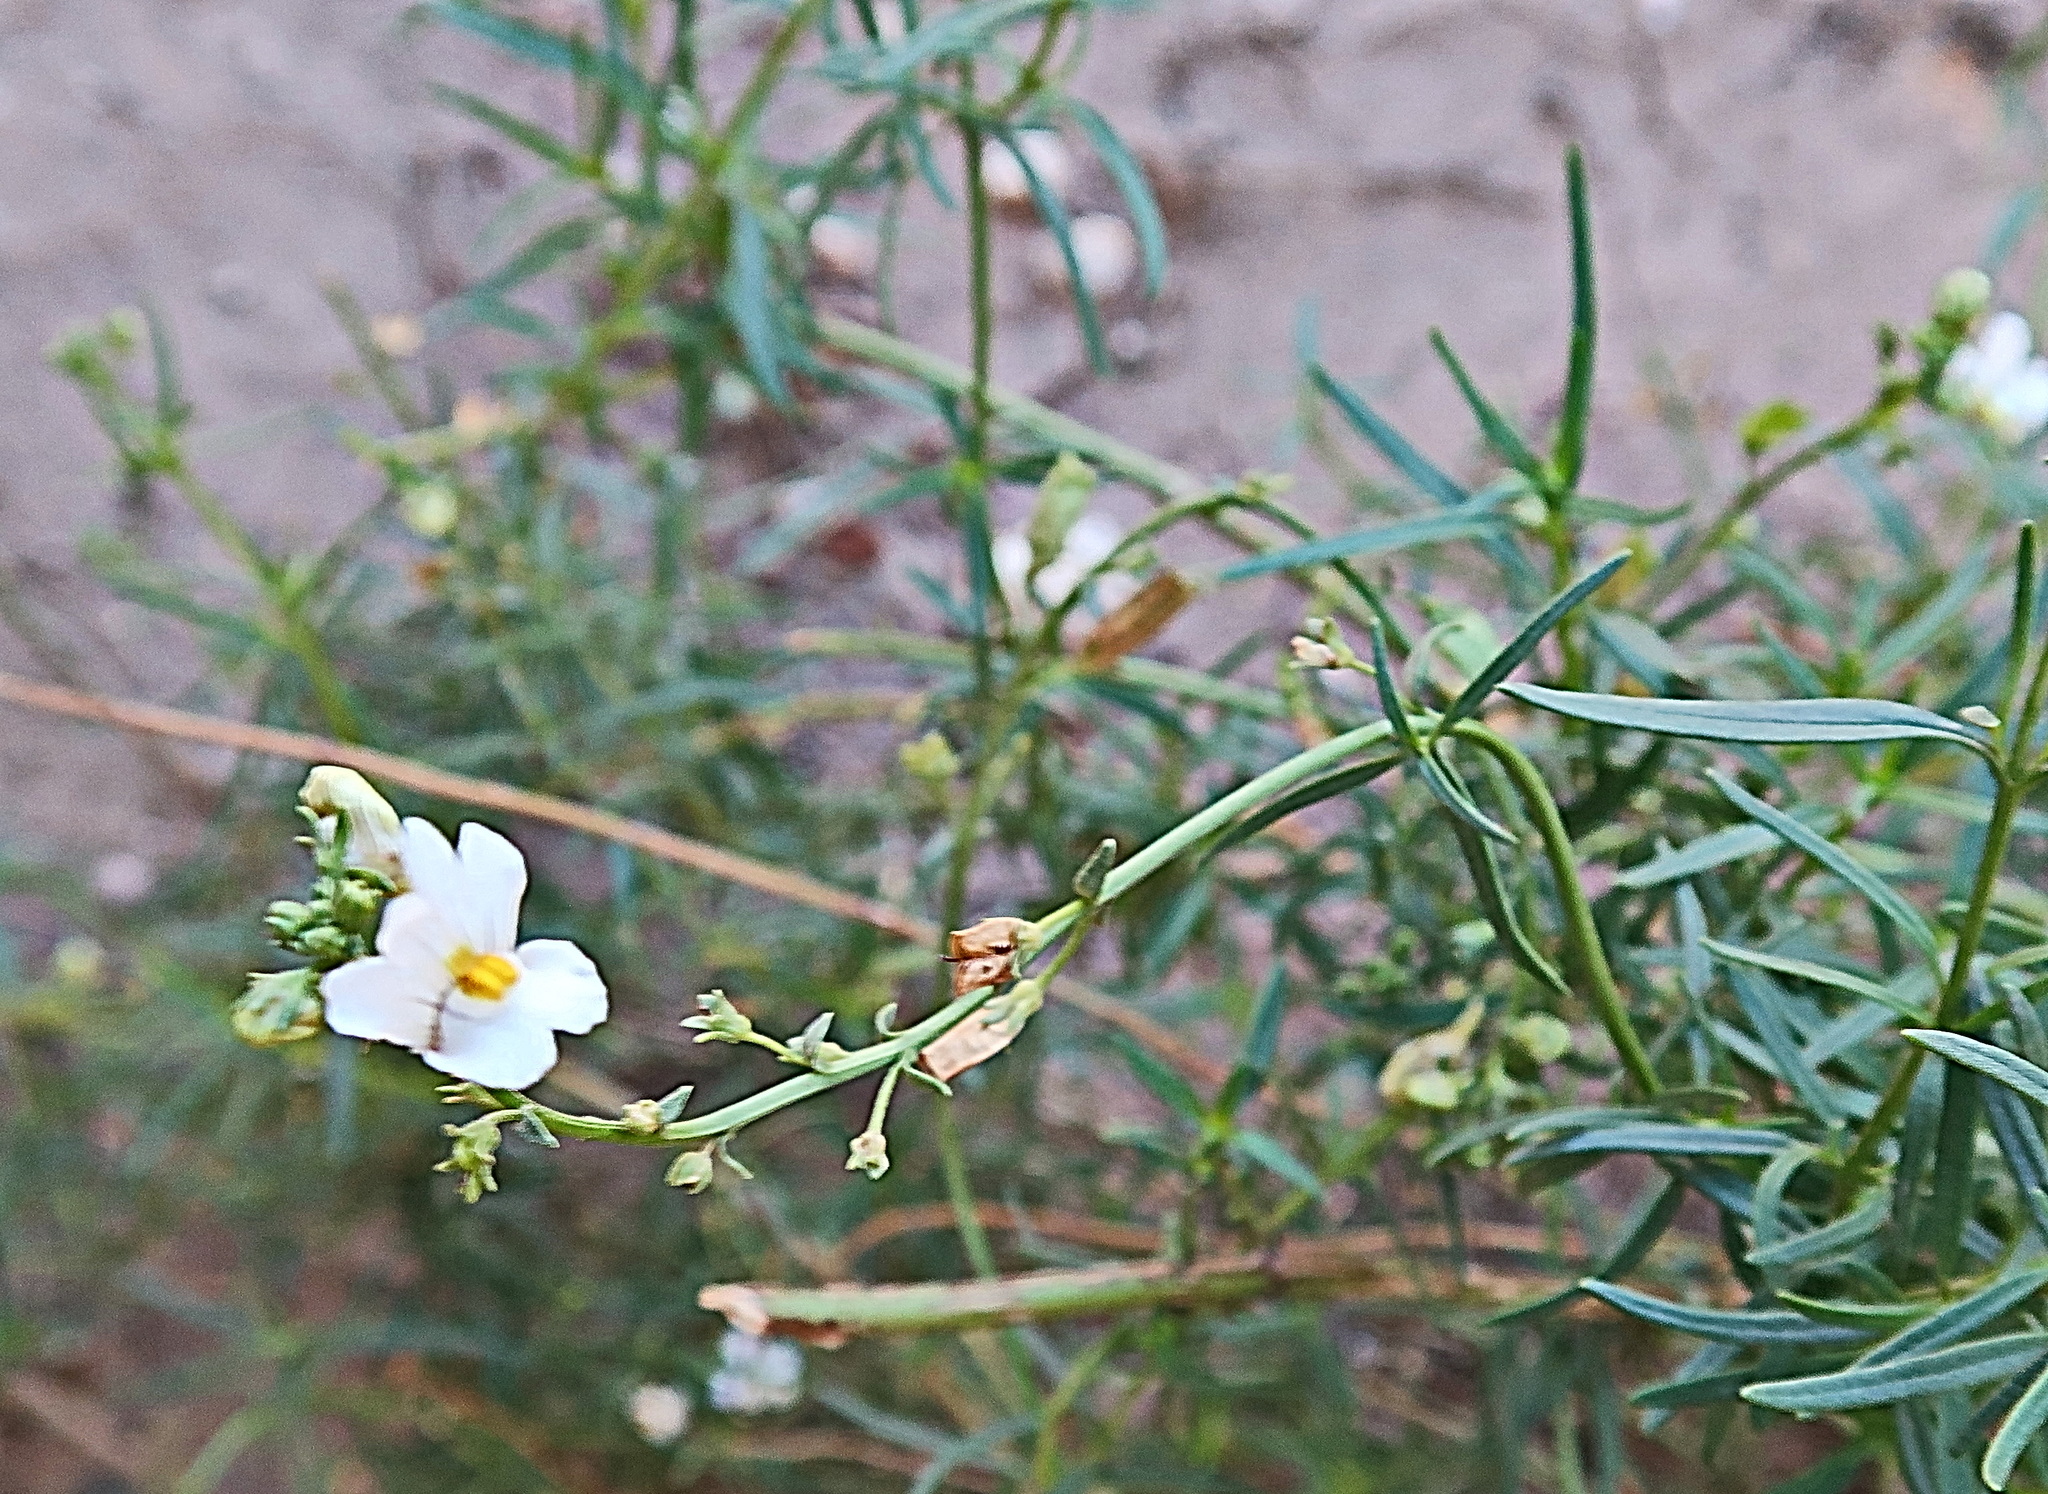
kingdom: Plantae
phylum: Tracheophyta
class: Magnoliopsida
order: Lamiales
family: Scrophulariaceae
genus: Nemesia
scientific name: Nemesia fruticans
